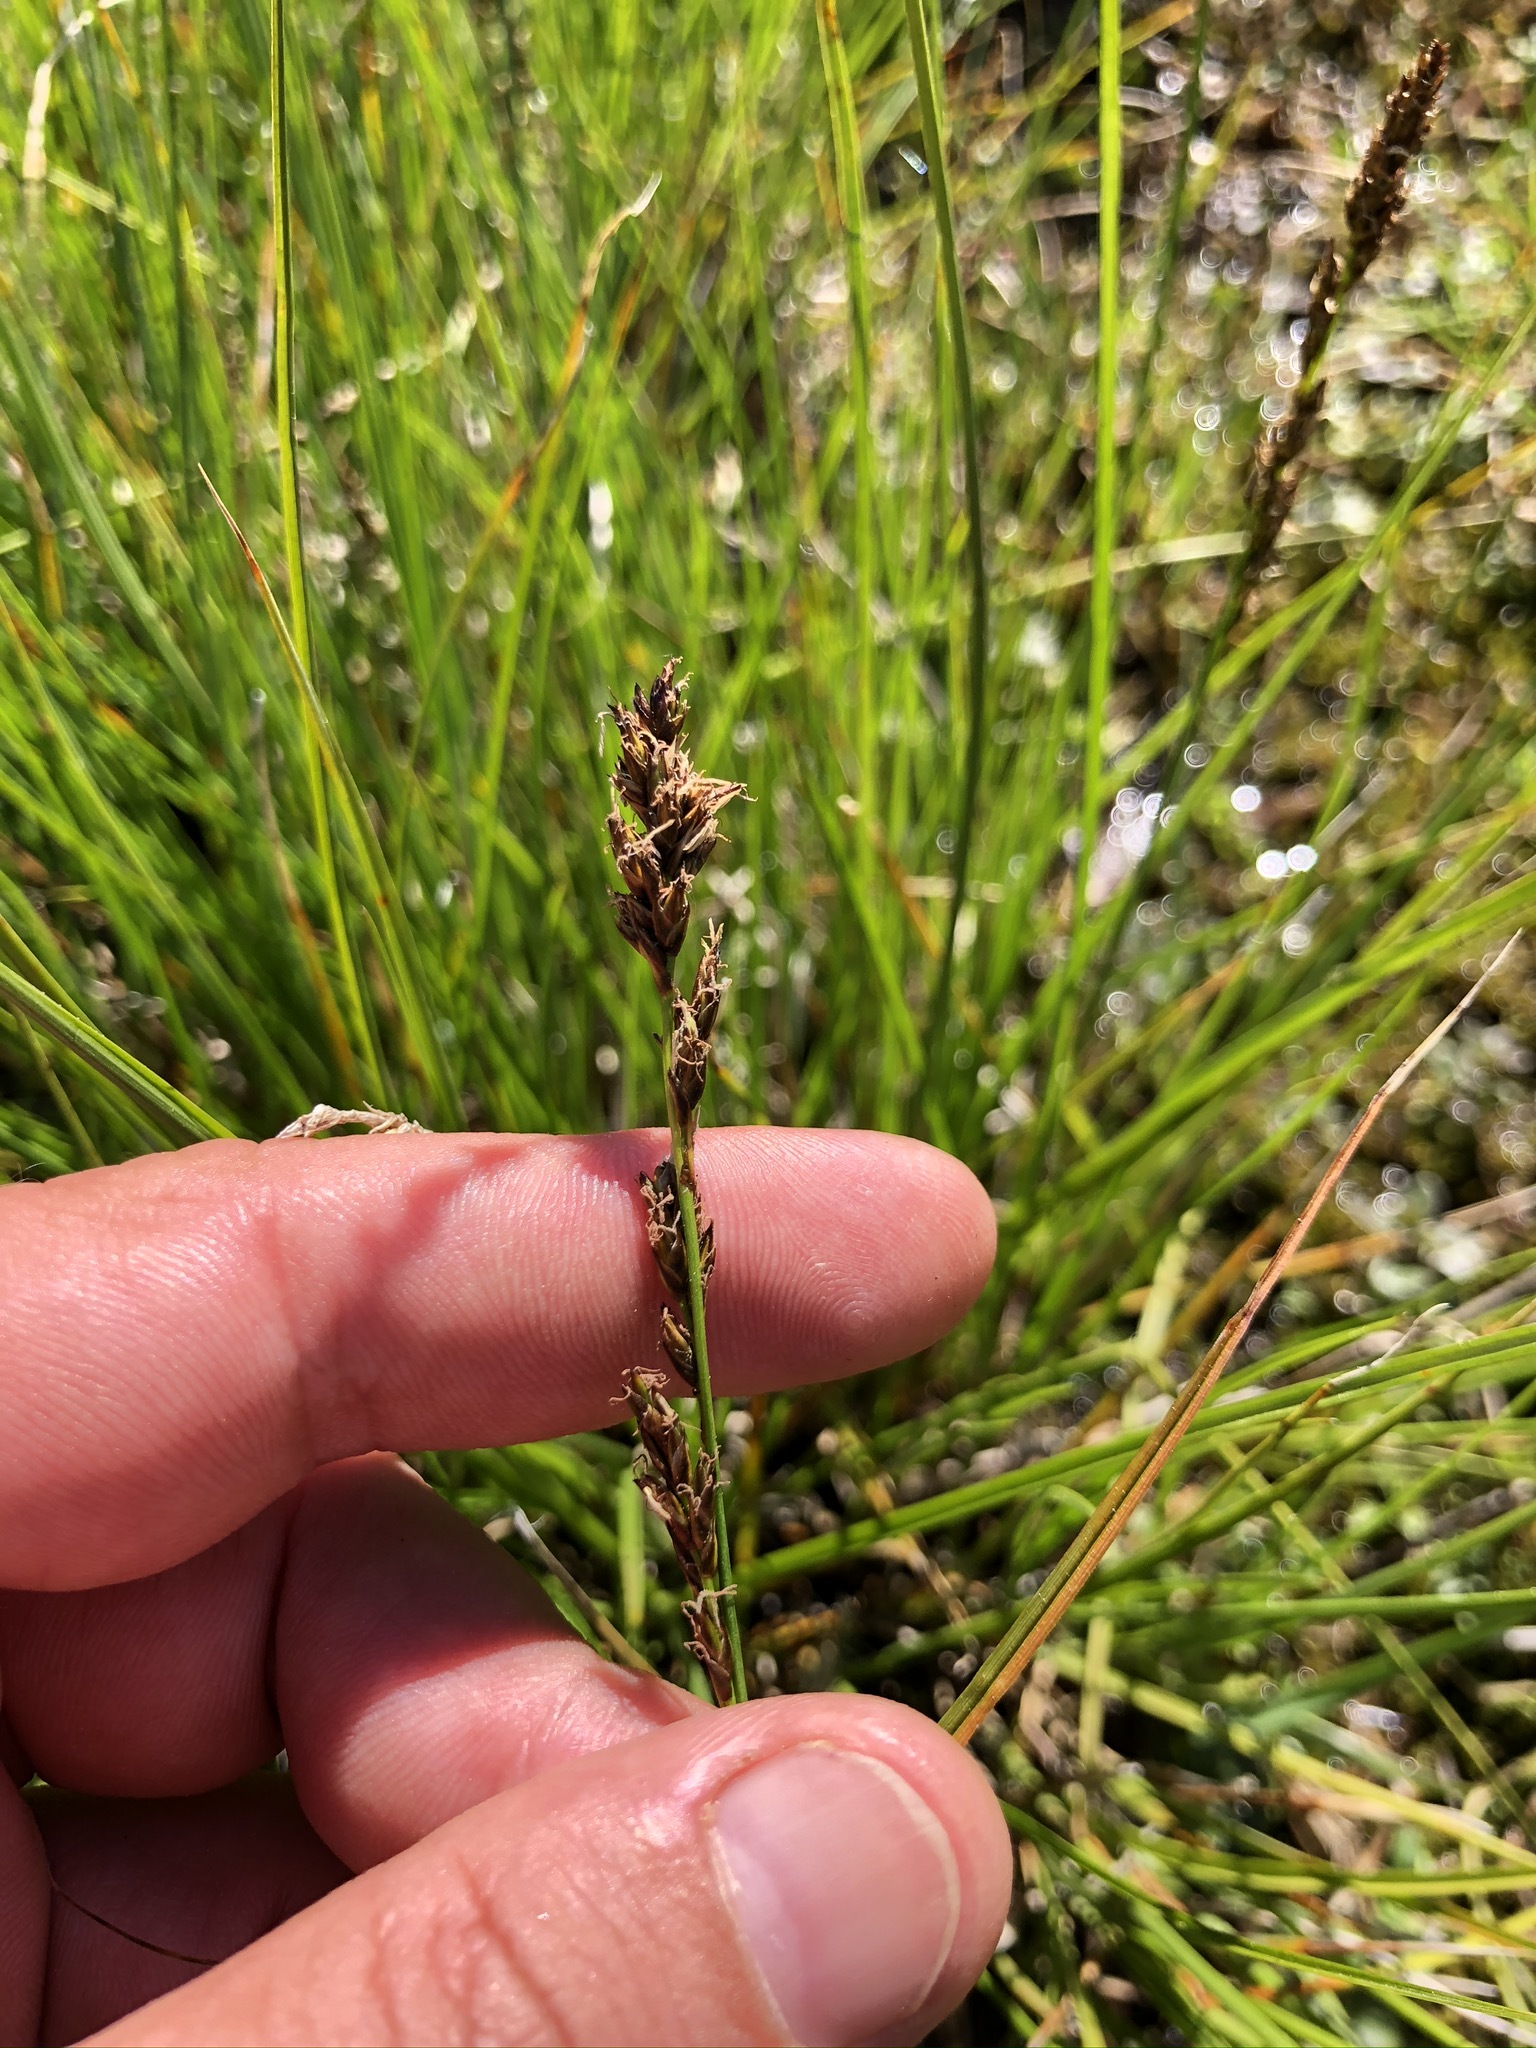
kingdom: Plantae
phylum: Tracheophyta
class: Liliopsida
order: Poales
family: Cyperaceae
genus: Carex
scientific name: Carex paniculata
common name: Greater tussock-sedge
